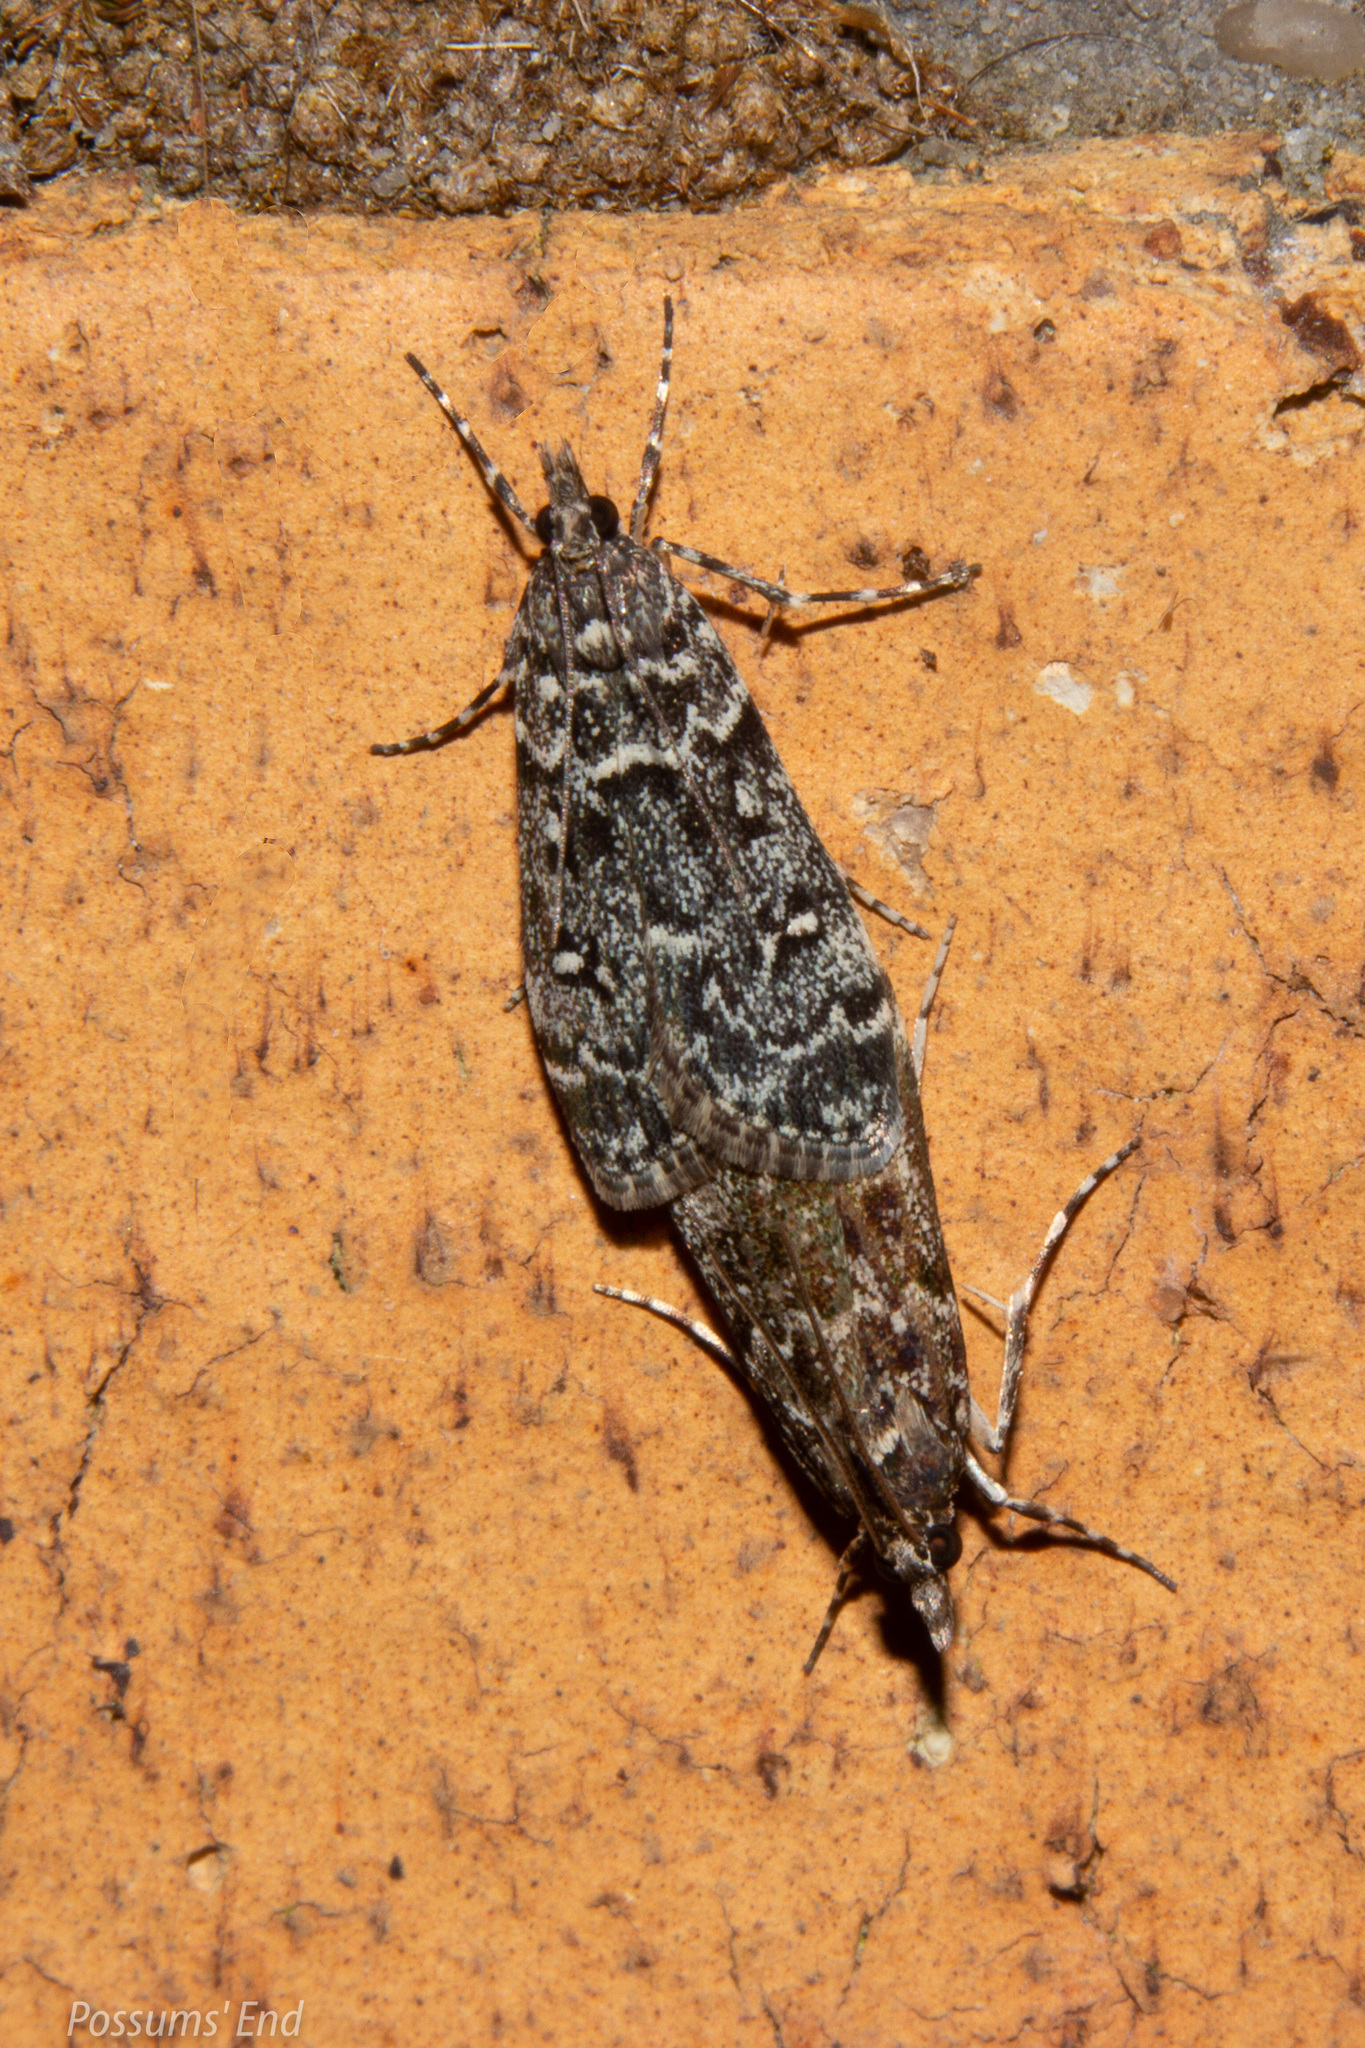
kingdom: Animalia
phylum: Arthropoda
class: Insecta
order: Lepidoptera
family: Crambidae
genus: Eudonia
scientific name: Eudonia philerga
